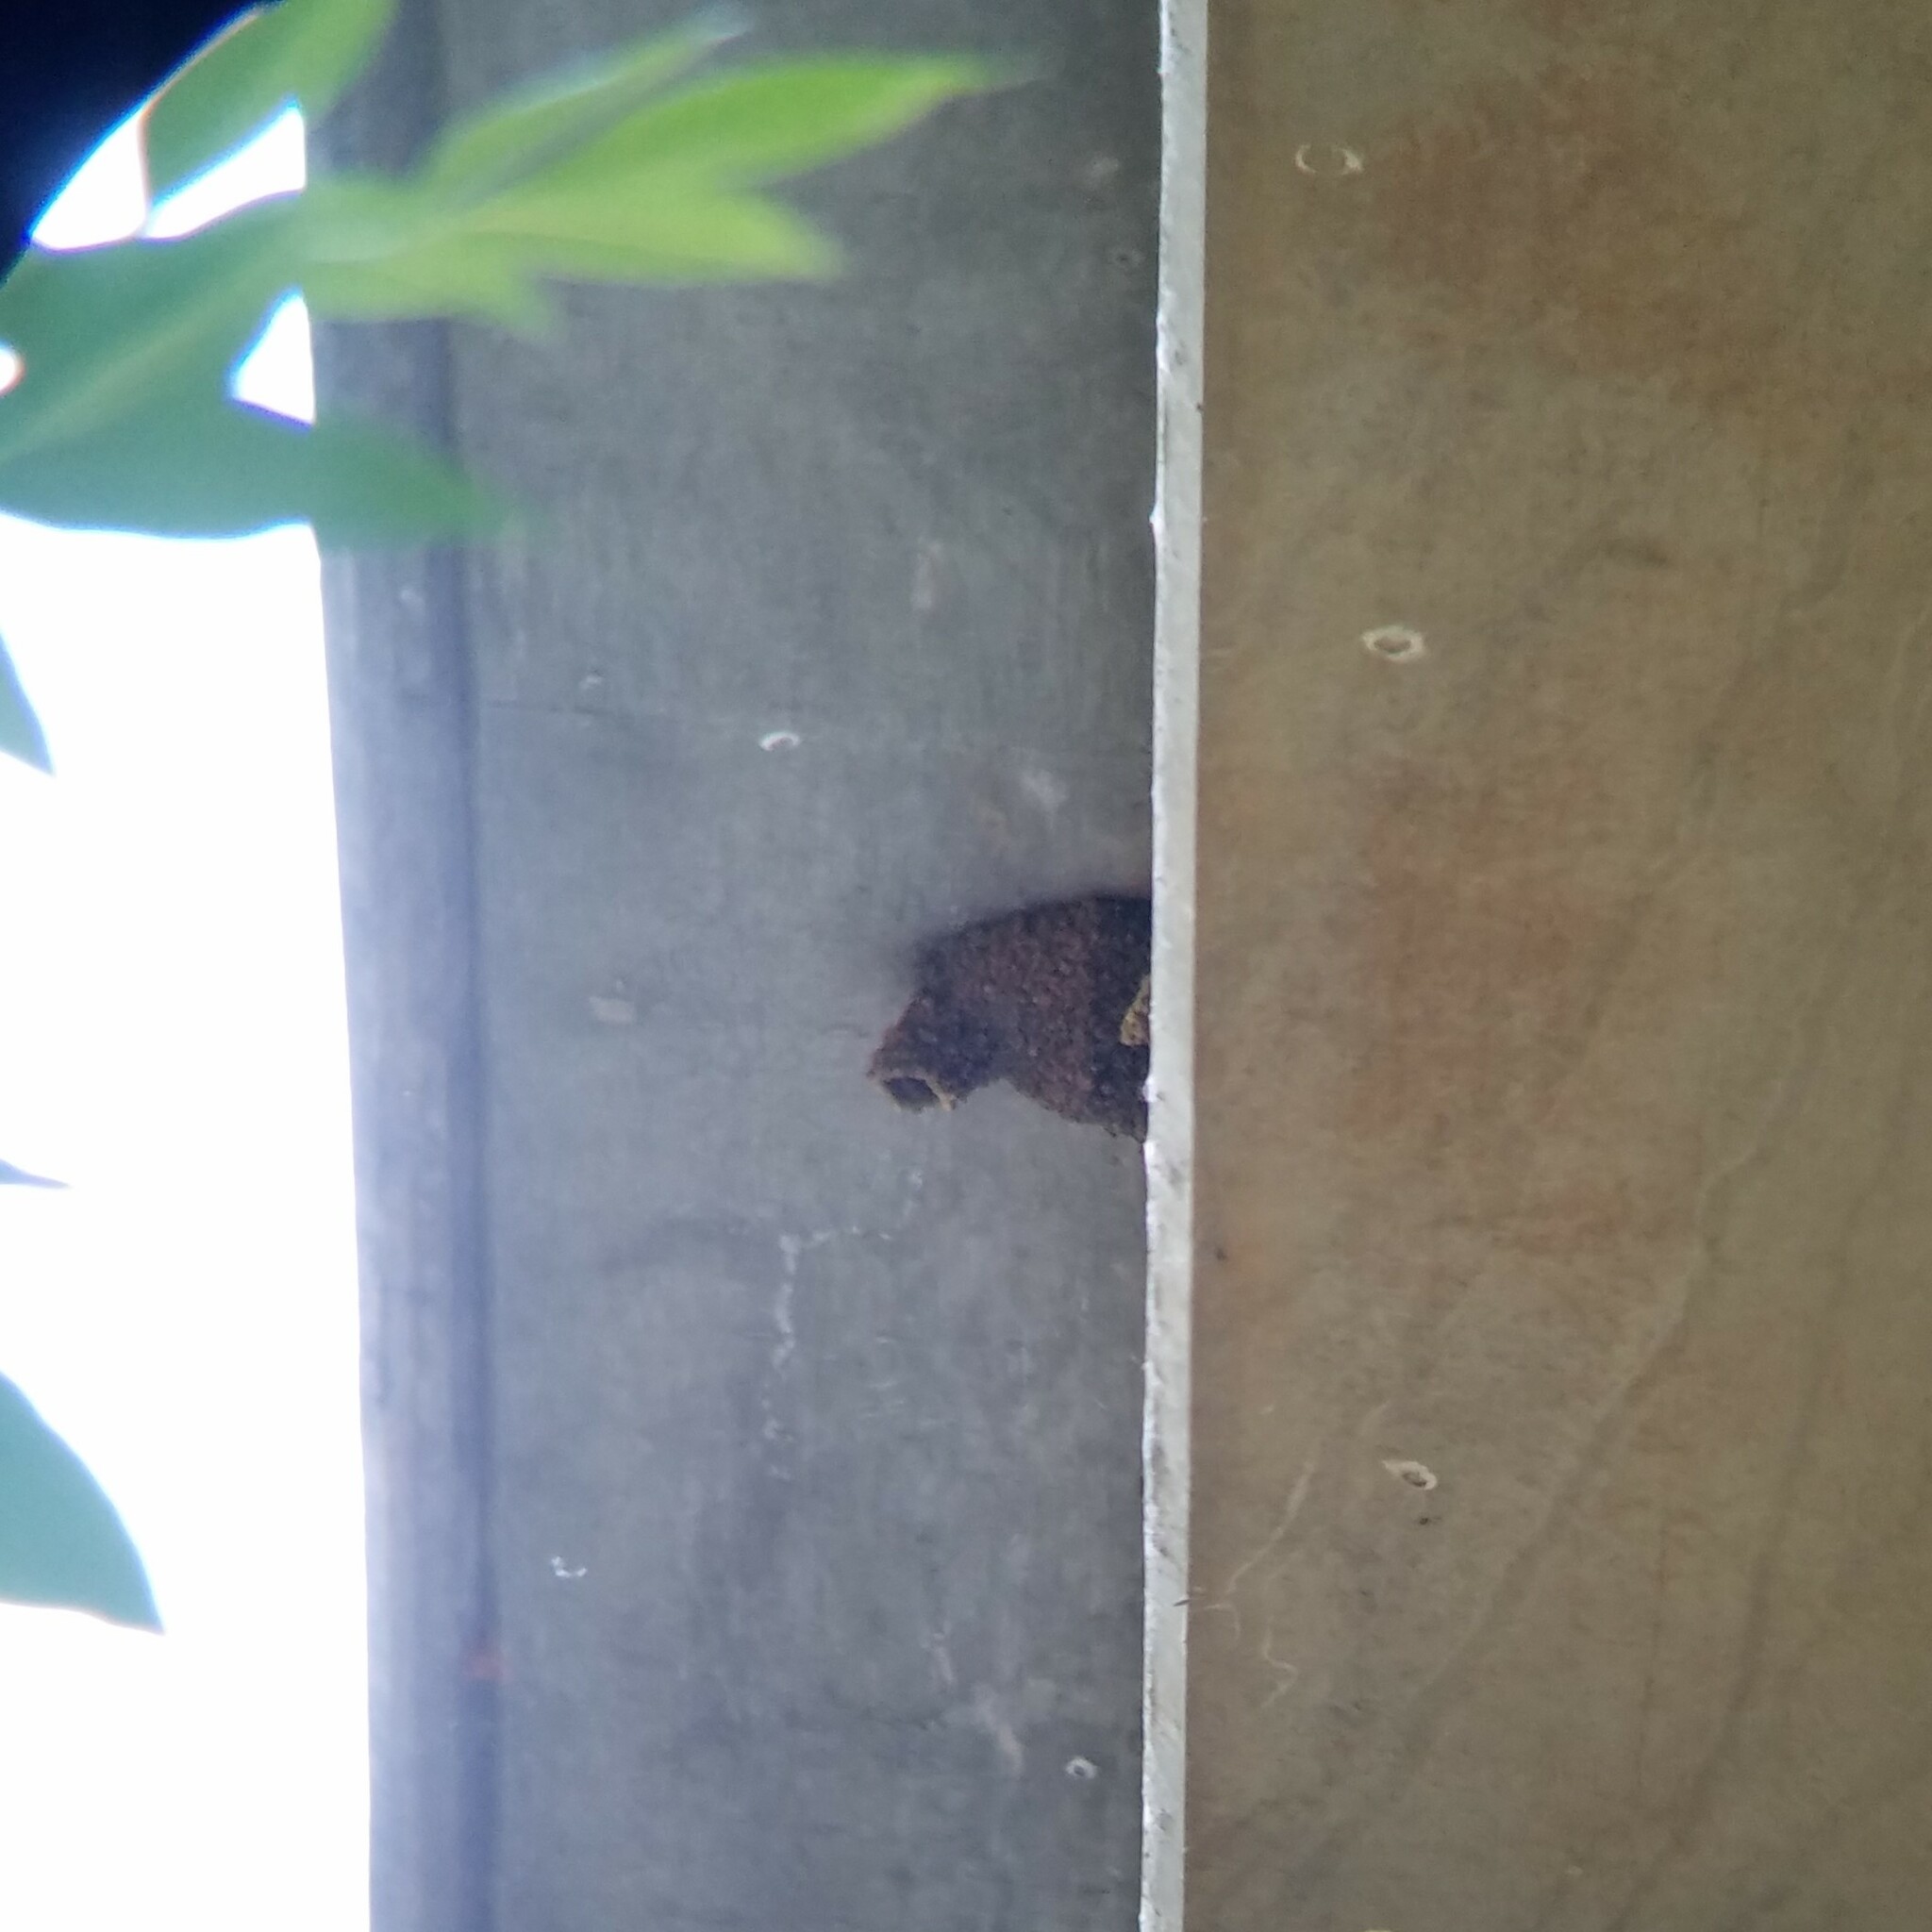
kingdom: Animalia
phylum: Chordata
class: Aves
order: Passeriformes
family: Hirundinidae
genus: Petrochelidon
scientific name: Petrochelidon pyrrhonota
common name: American cliff swallow
